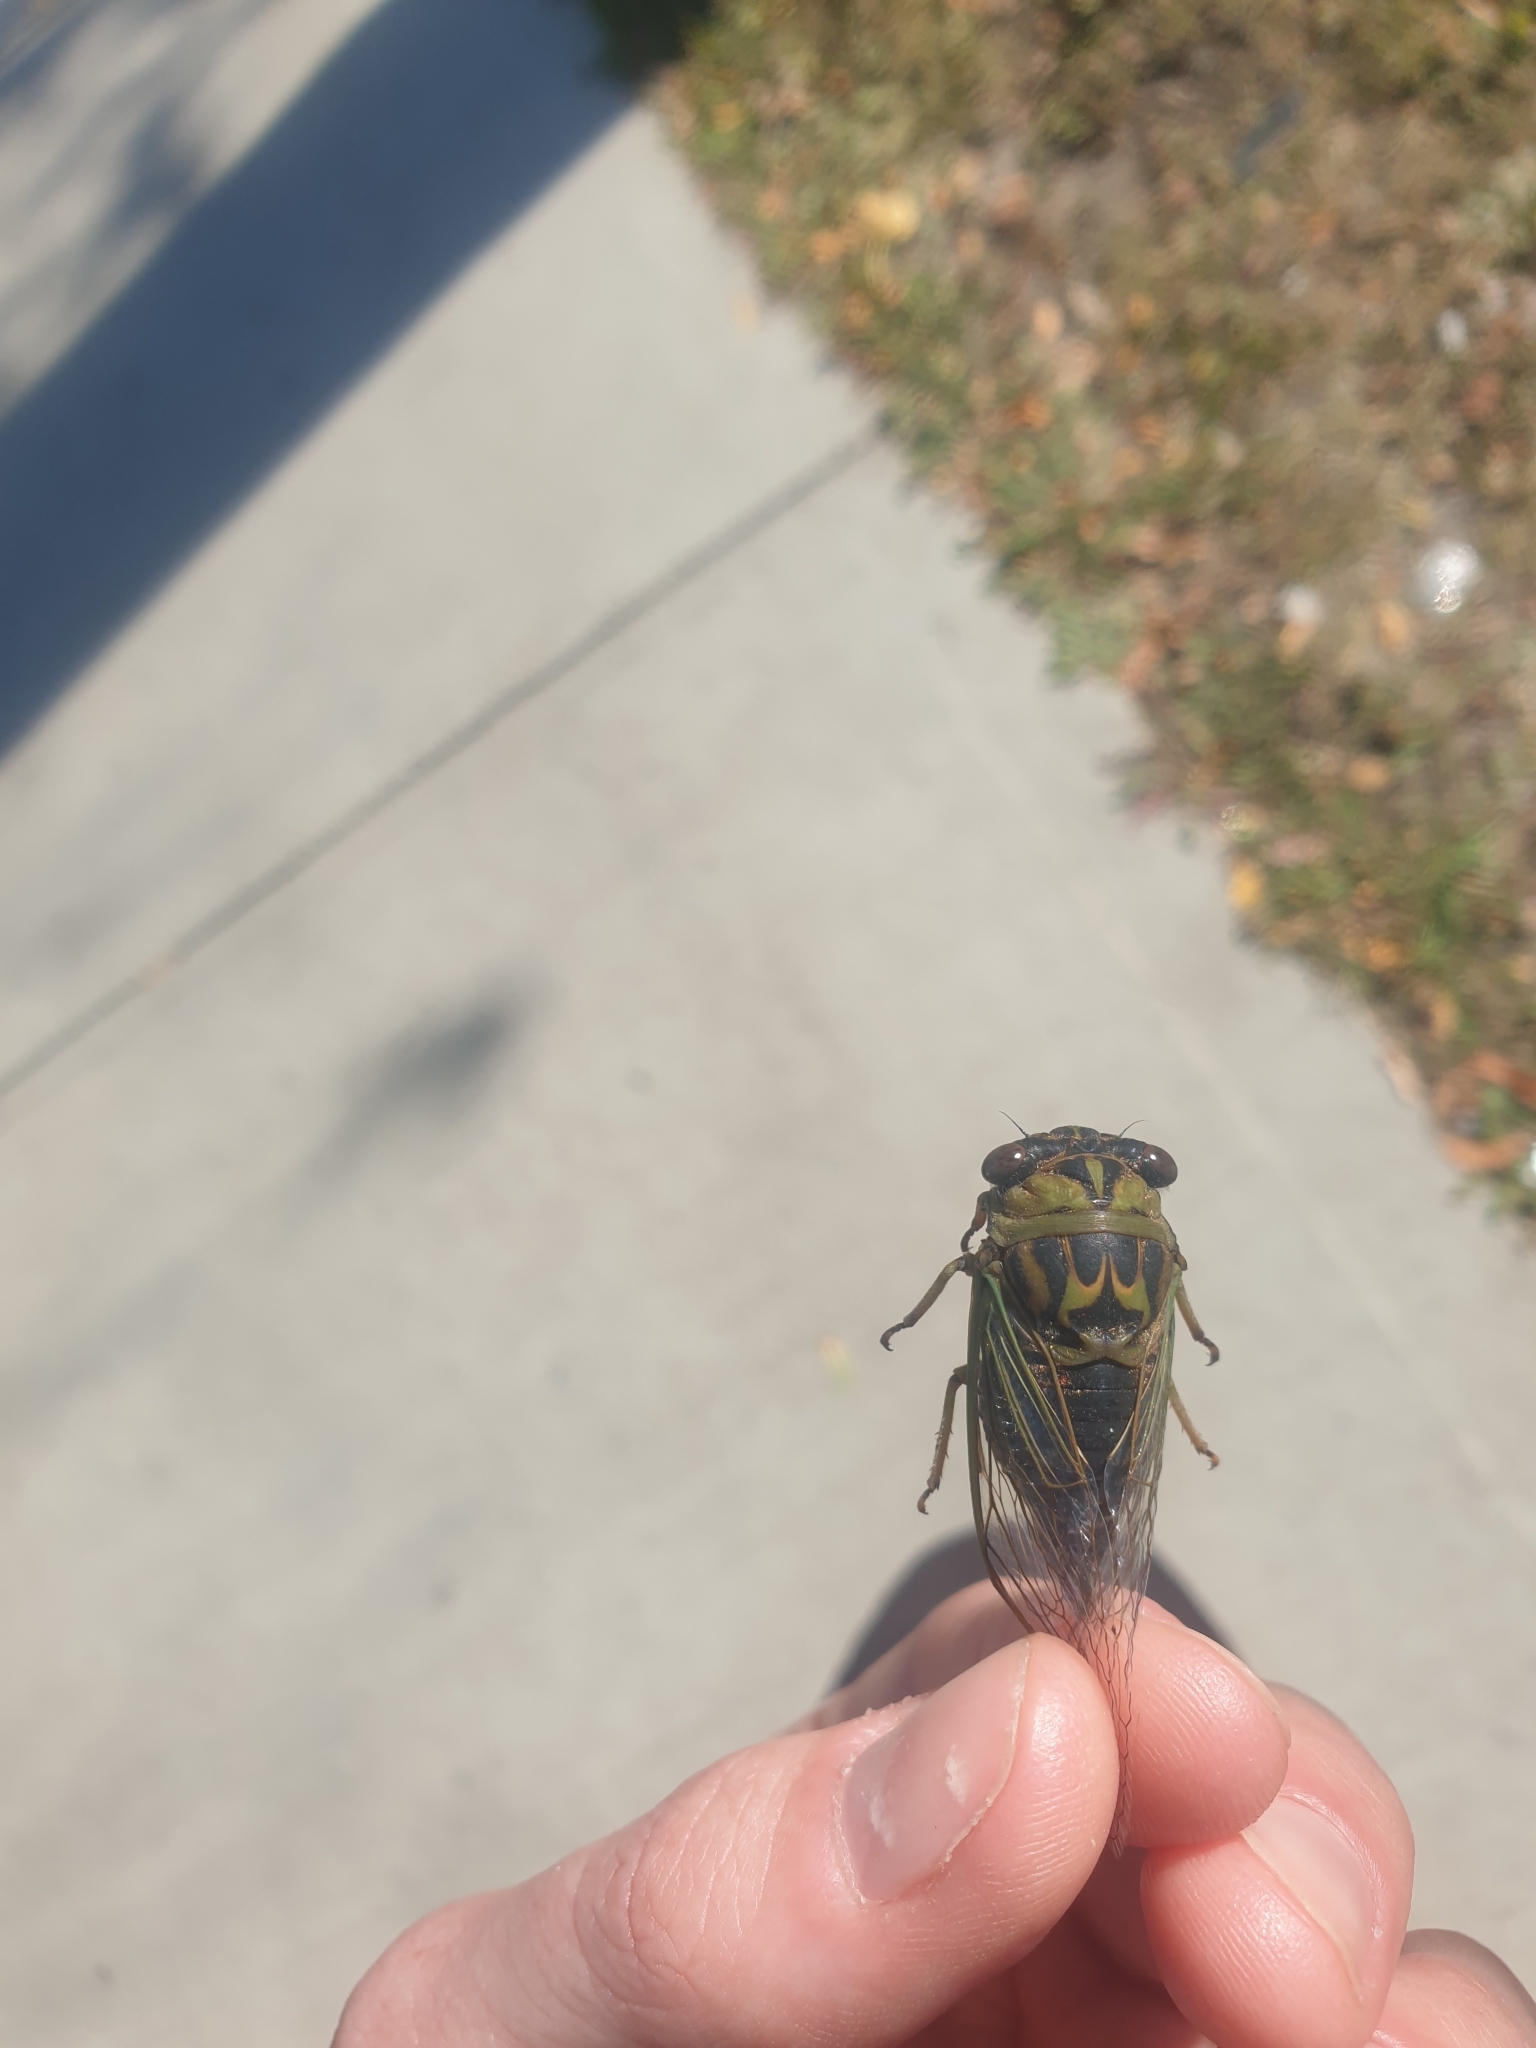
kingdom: Animalia
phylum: Arthropoda
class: Insecta
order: Hemiptera
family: Cicadidae
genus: Neotibicen
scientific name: Neotibicen canicularis
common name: God-day cicada
